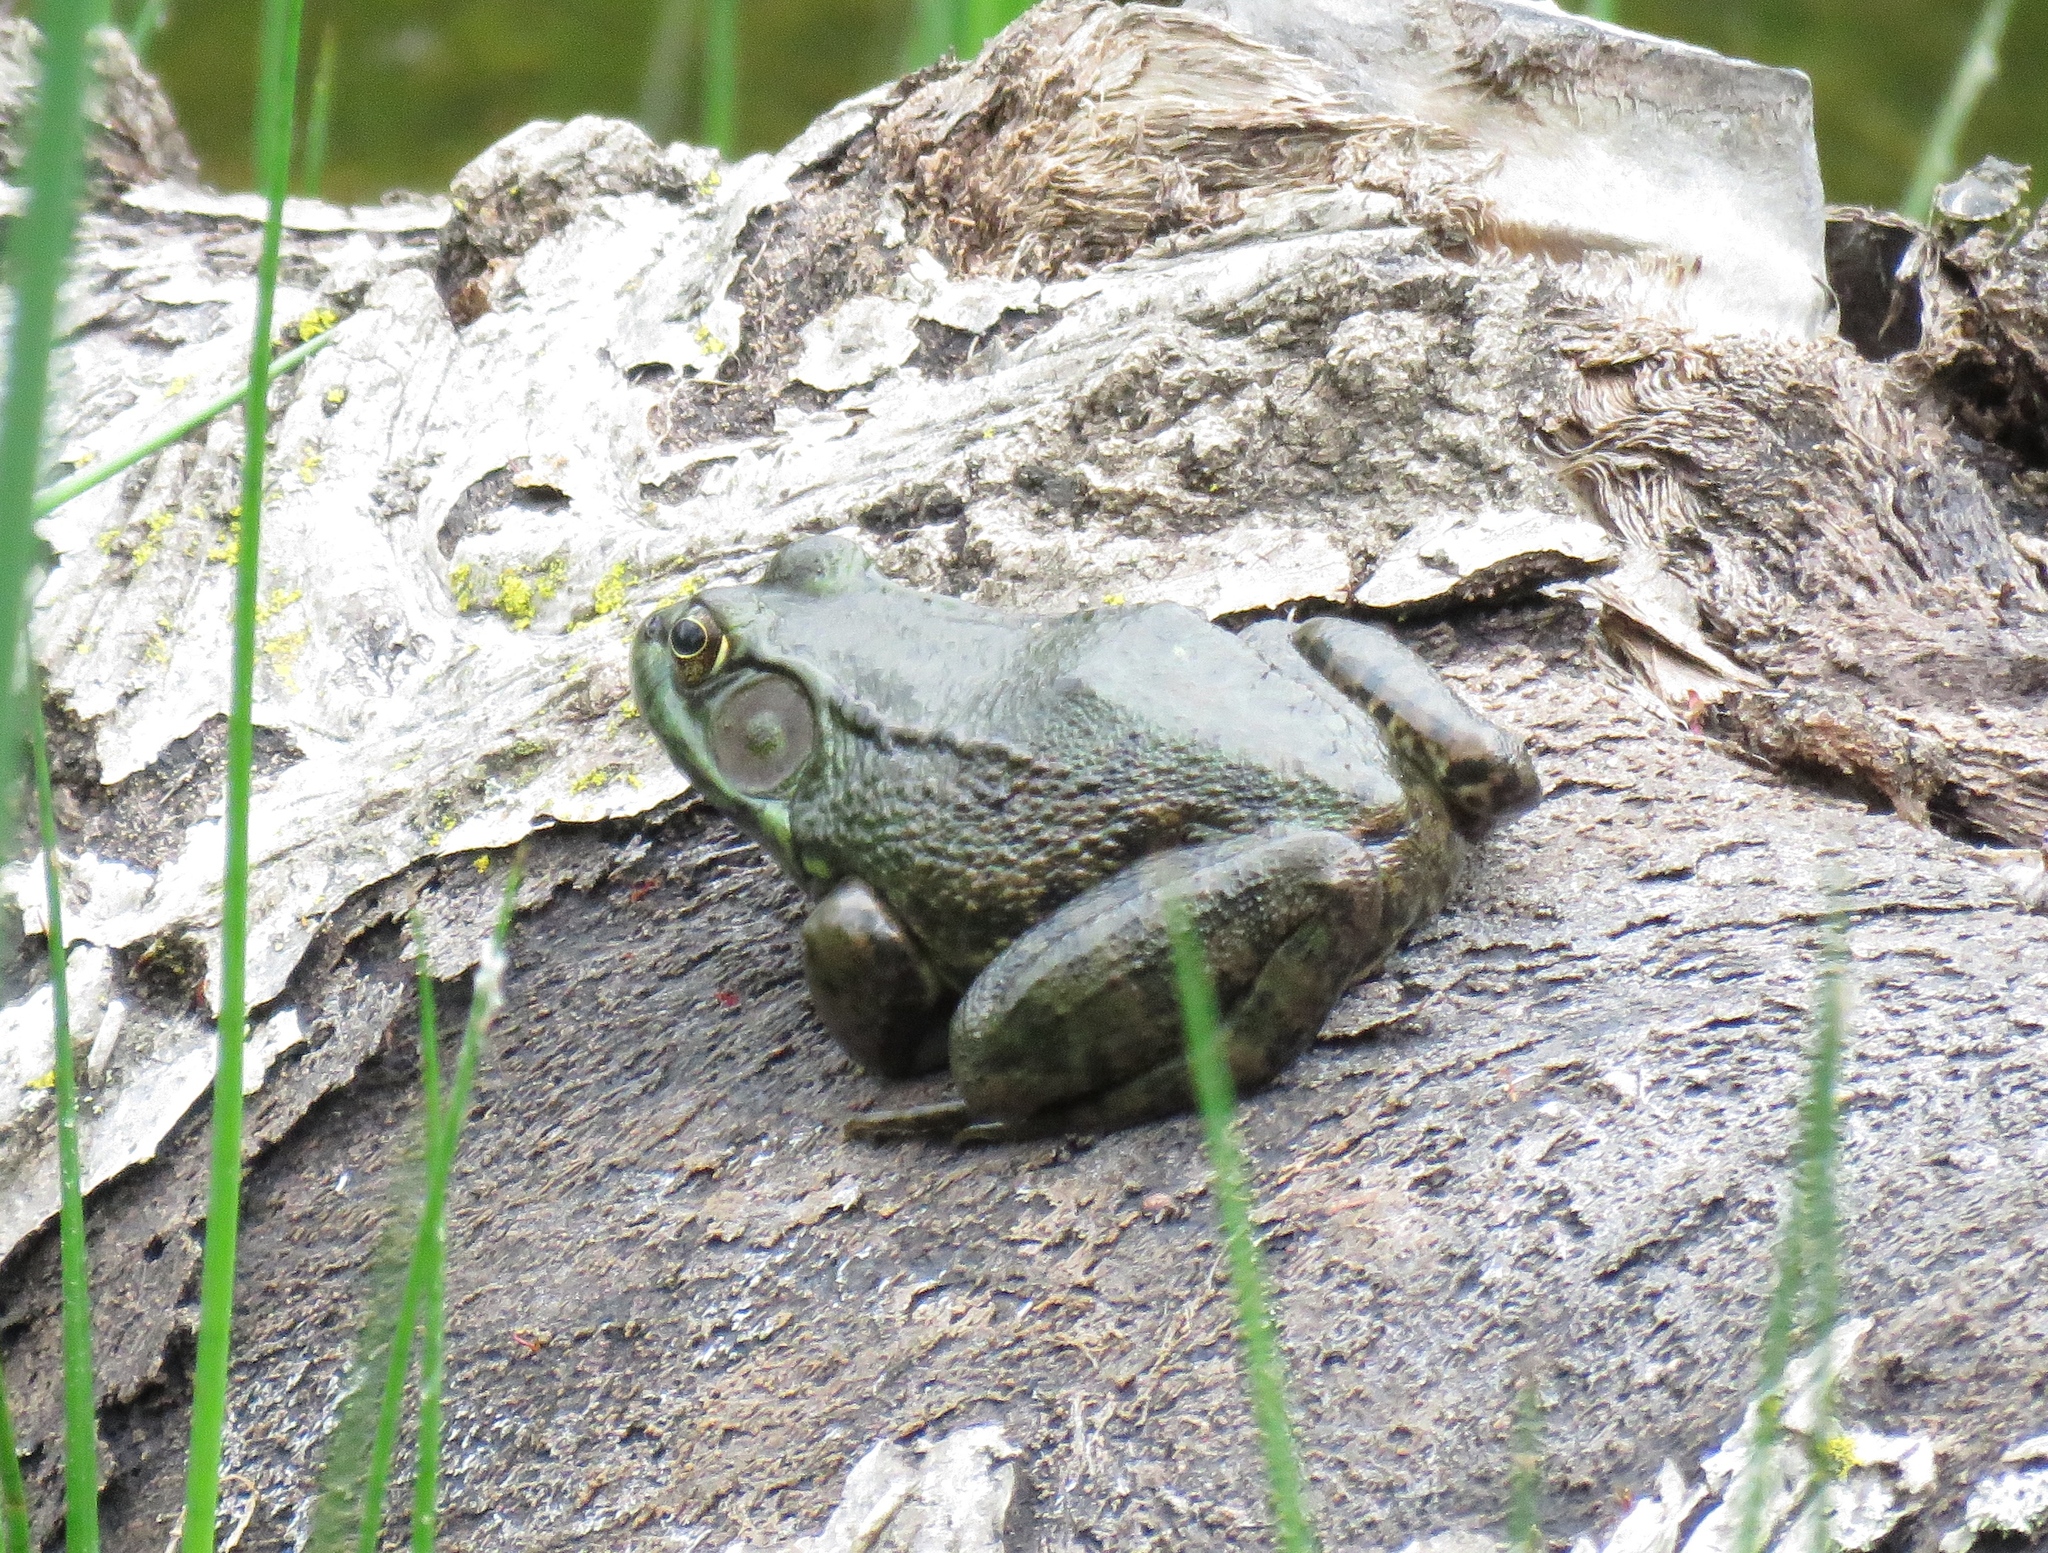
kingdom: Animalia
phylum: Chordata
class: Amphibia
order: Anura
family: Ranidae
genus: Lithobates
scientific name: Lithobates clamitans
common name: Green frog
